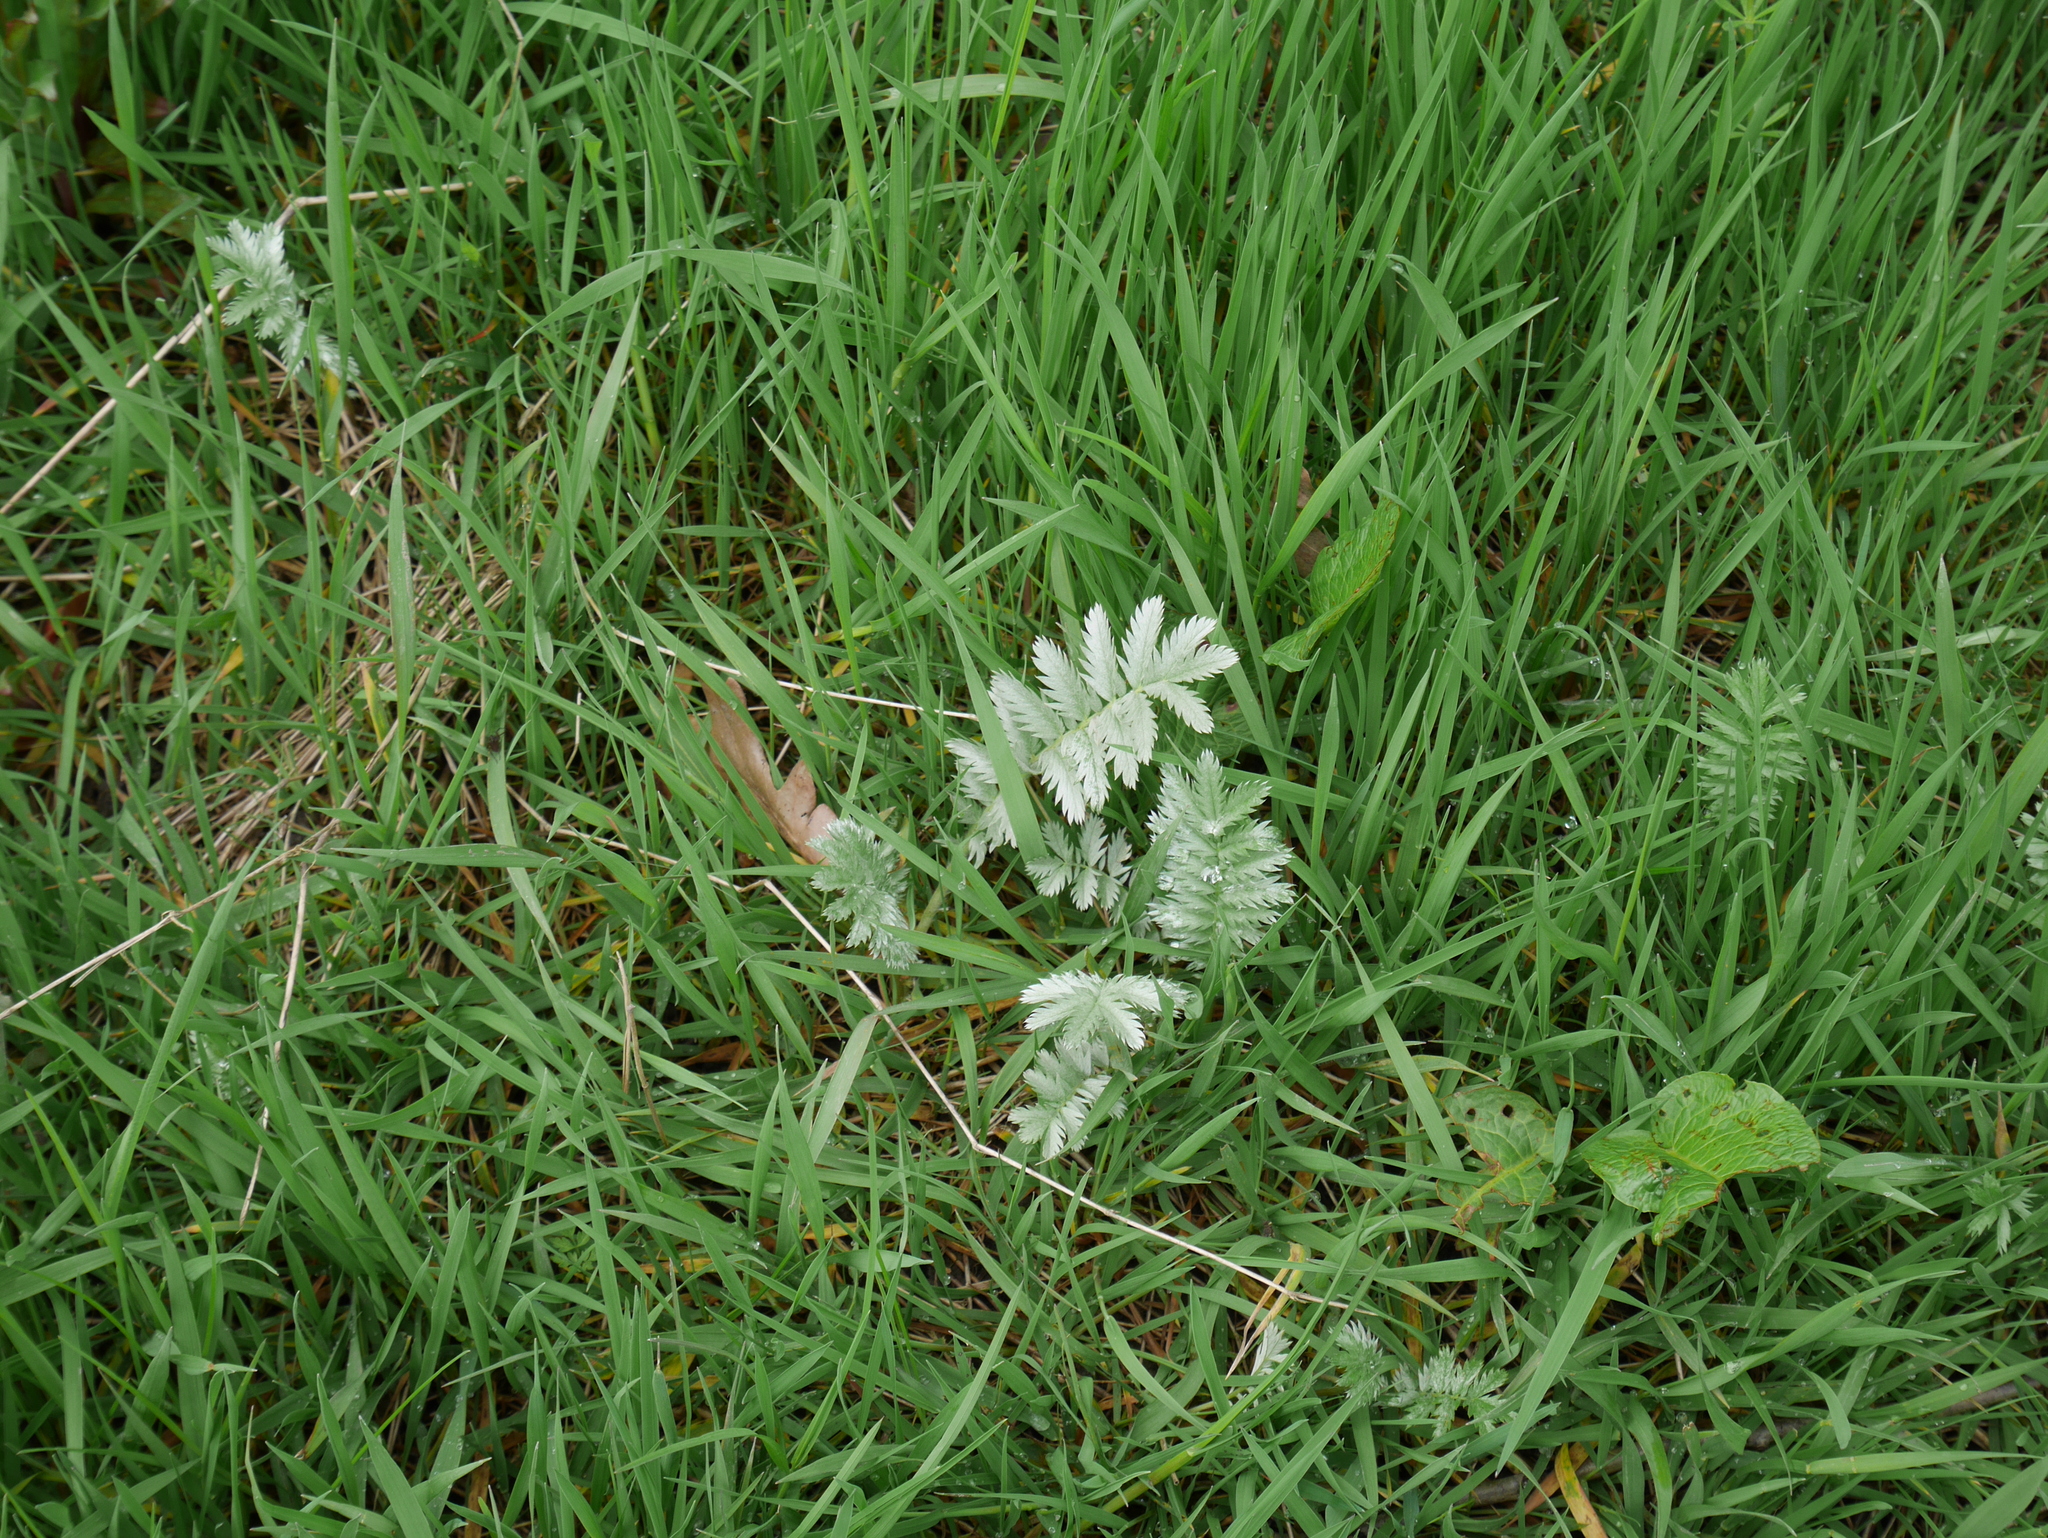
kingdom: Plantae
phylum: Tracheophyta
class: Magnoliopsida
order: Rosales
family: Rosaceae
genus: Argentina
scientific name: Argentina anserina
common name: Common silverweed
